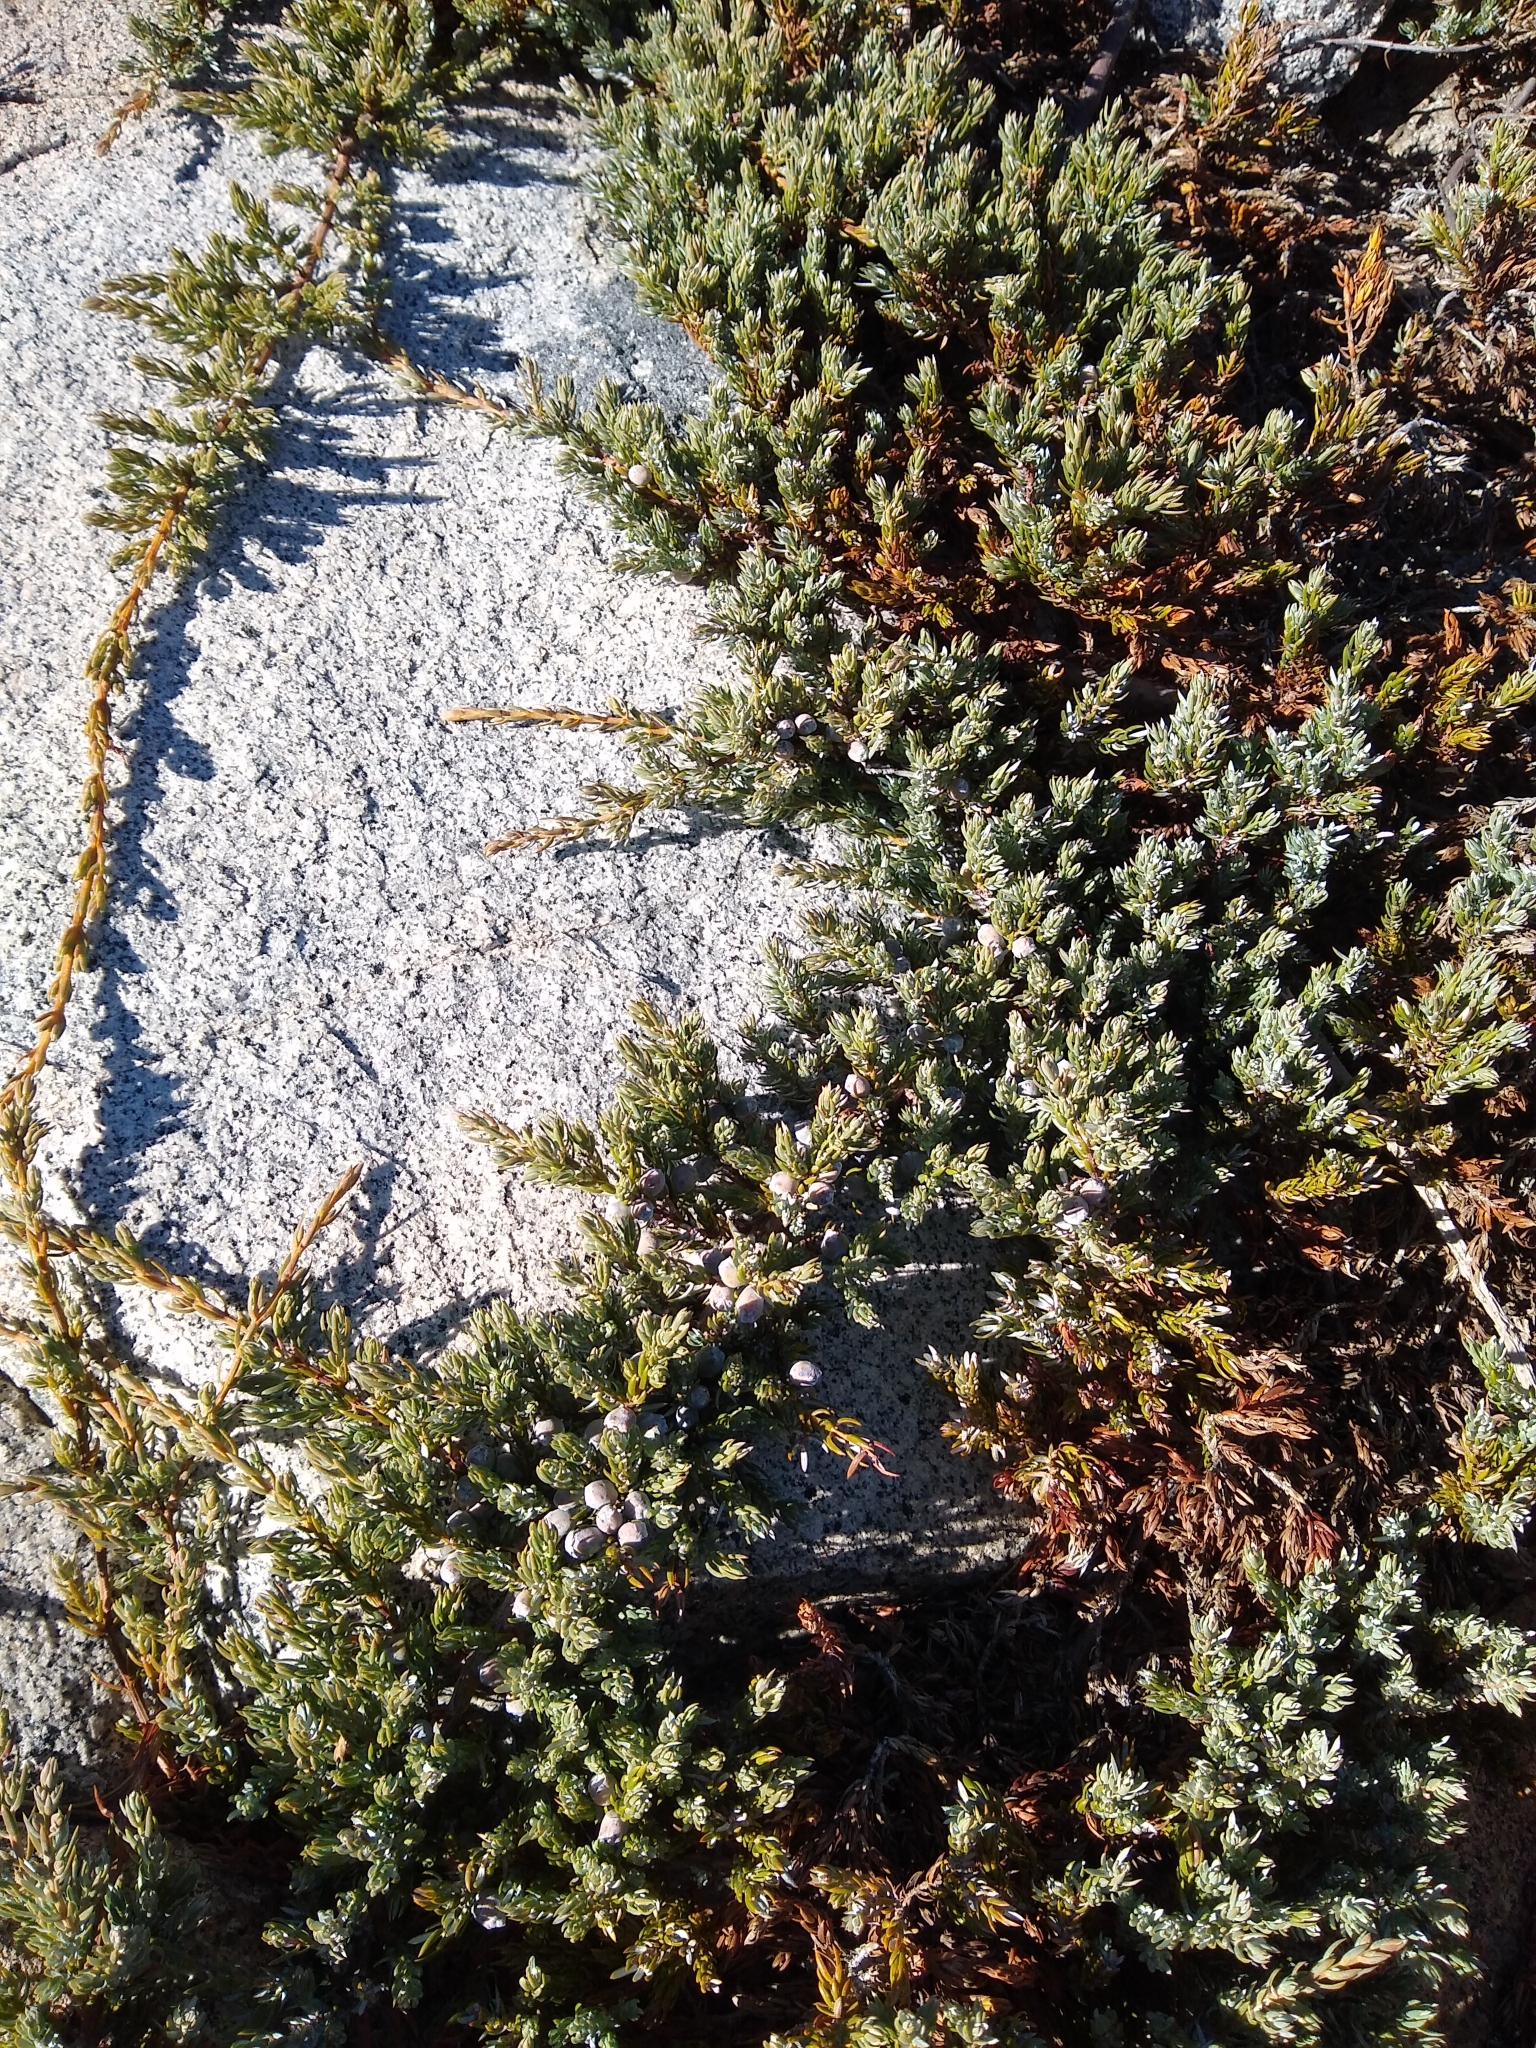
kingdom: Plantae
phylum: Tracheophyta
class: Pinopsida
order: Pinales
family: Cupressaceae
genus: Juniperus
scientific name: Juniperus communis
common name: Common juniper
